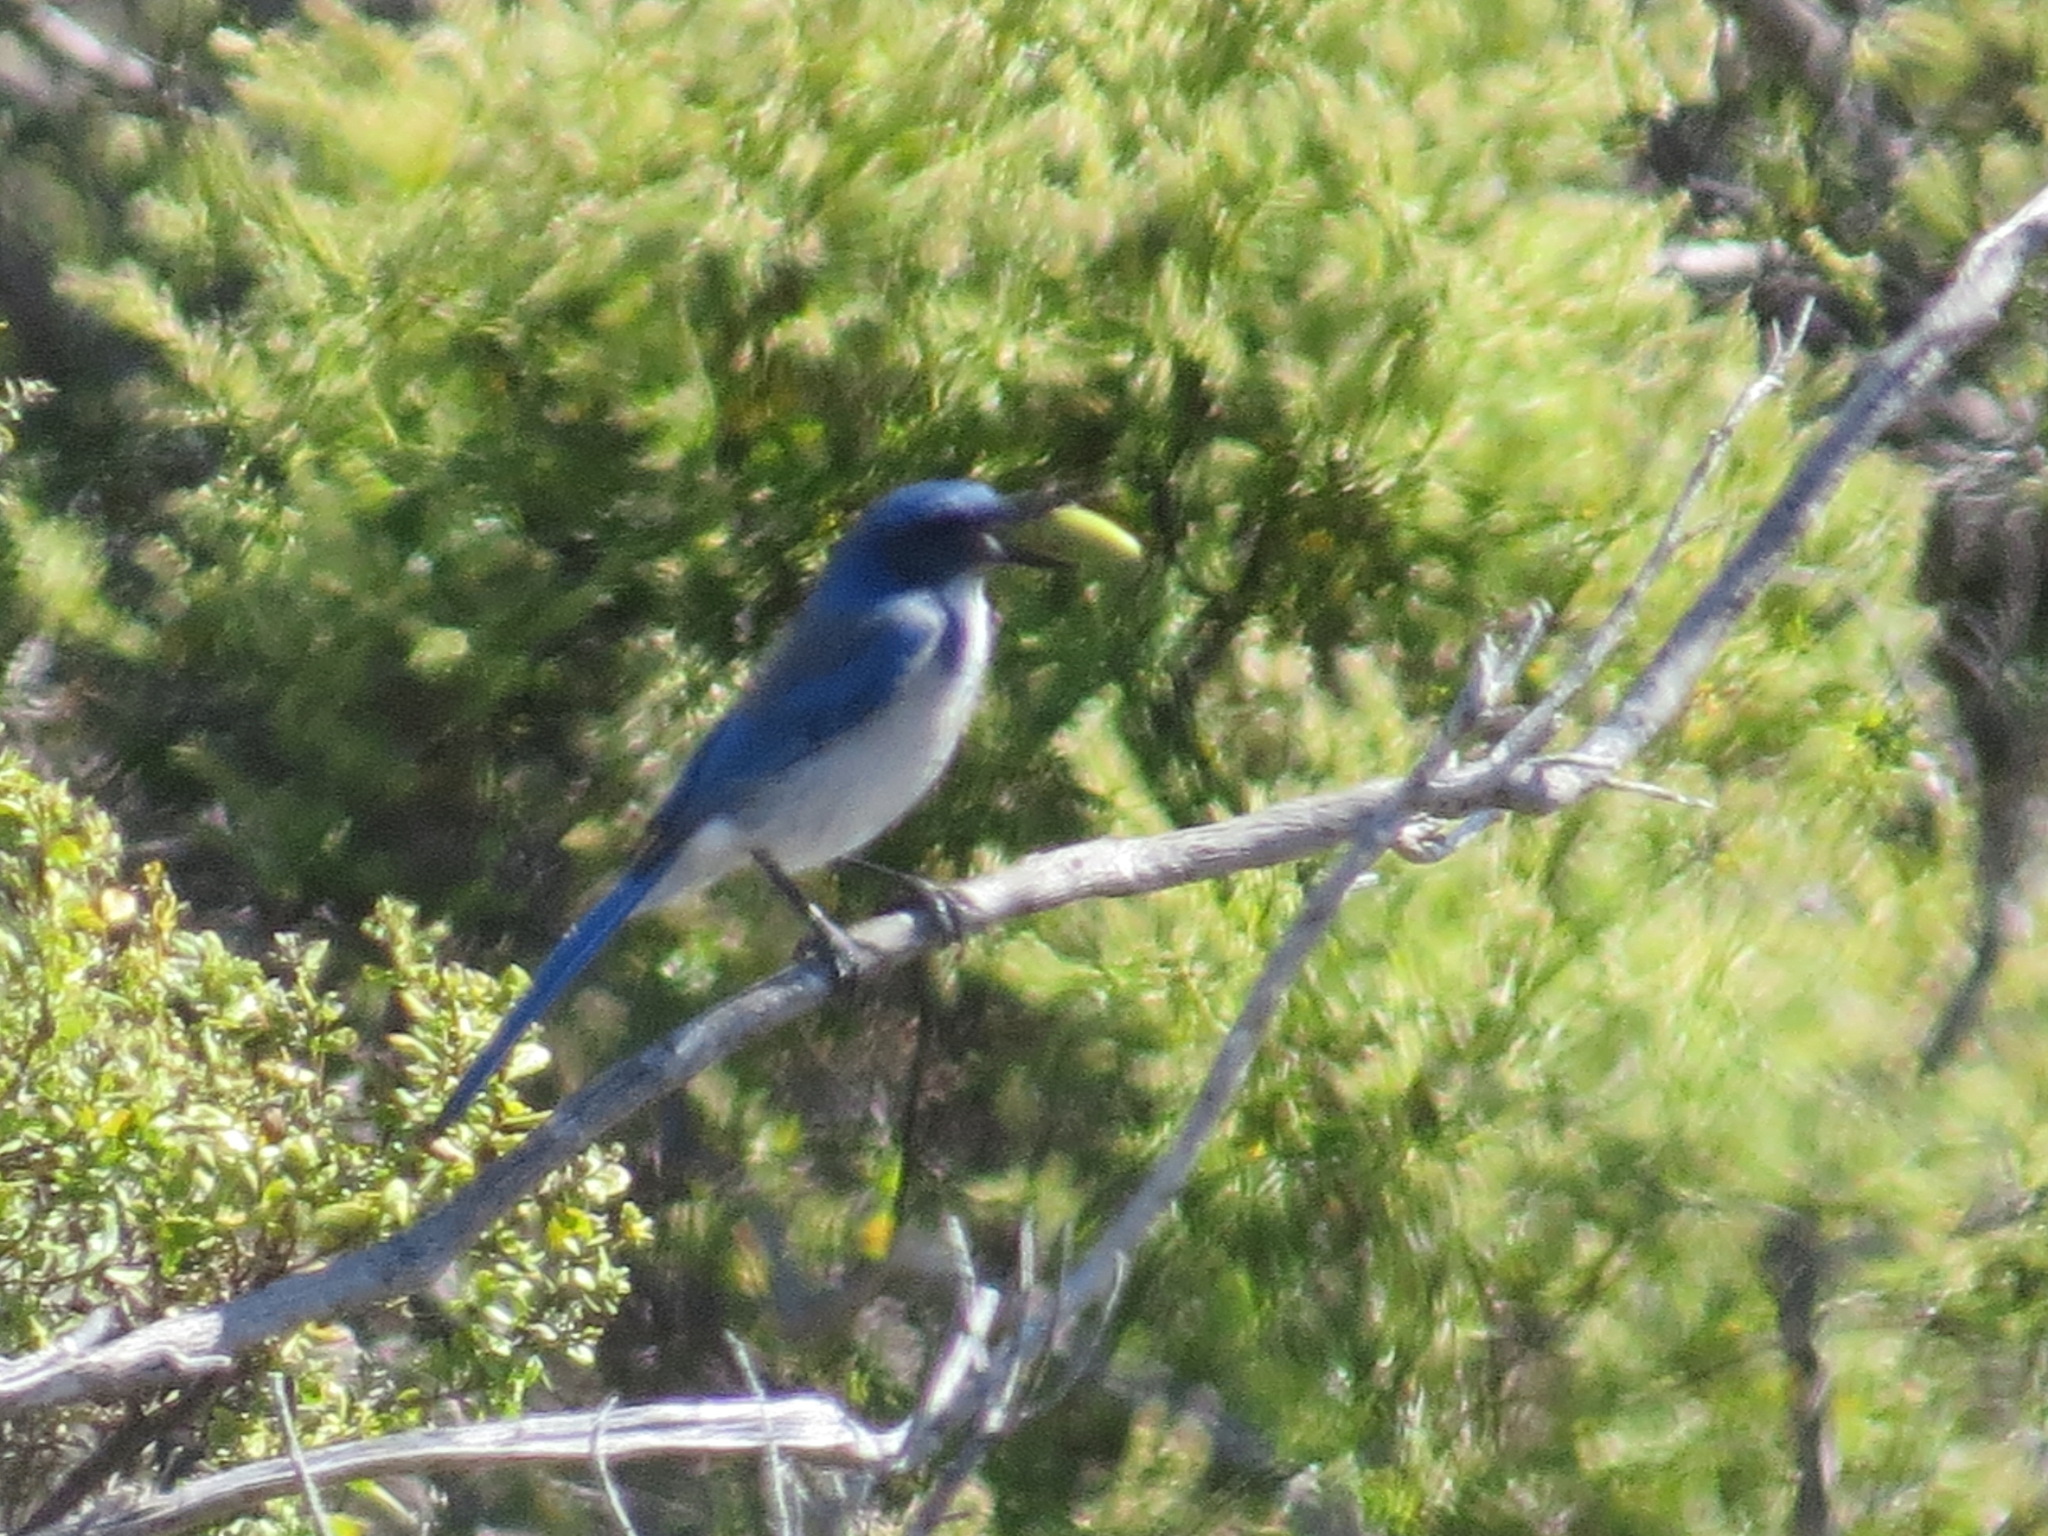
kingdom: Animalia
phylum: Chordata
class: Aves
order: Passeriformes
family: Corvidae
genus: Aphelocoma
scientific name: Aphelocoma californica
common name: California scrub-jay
